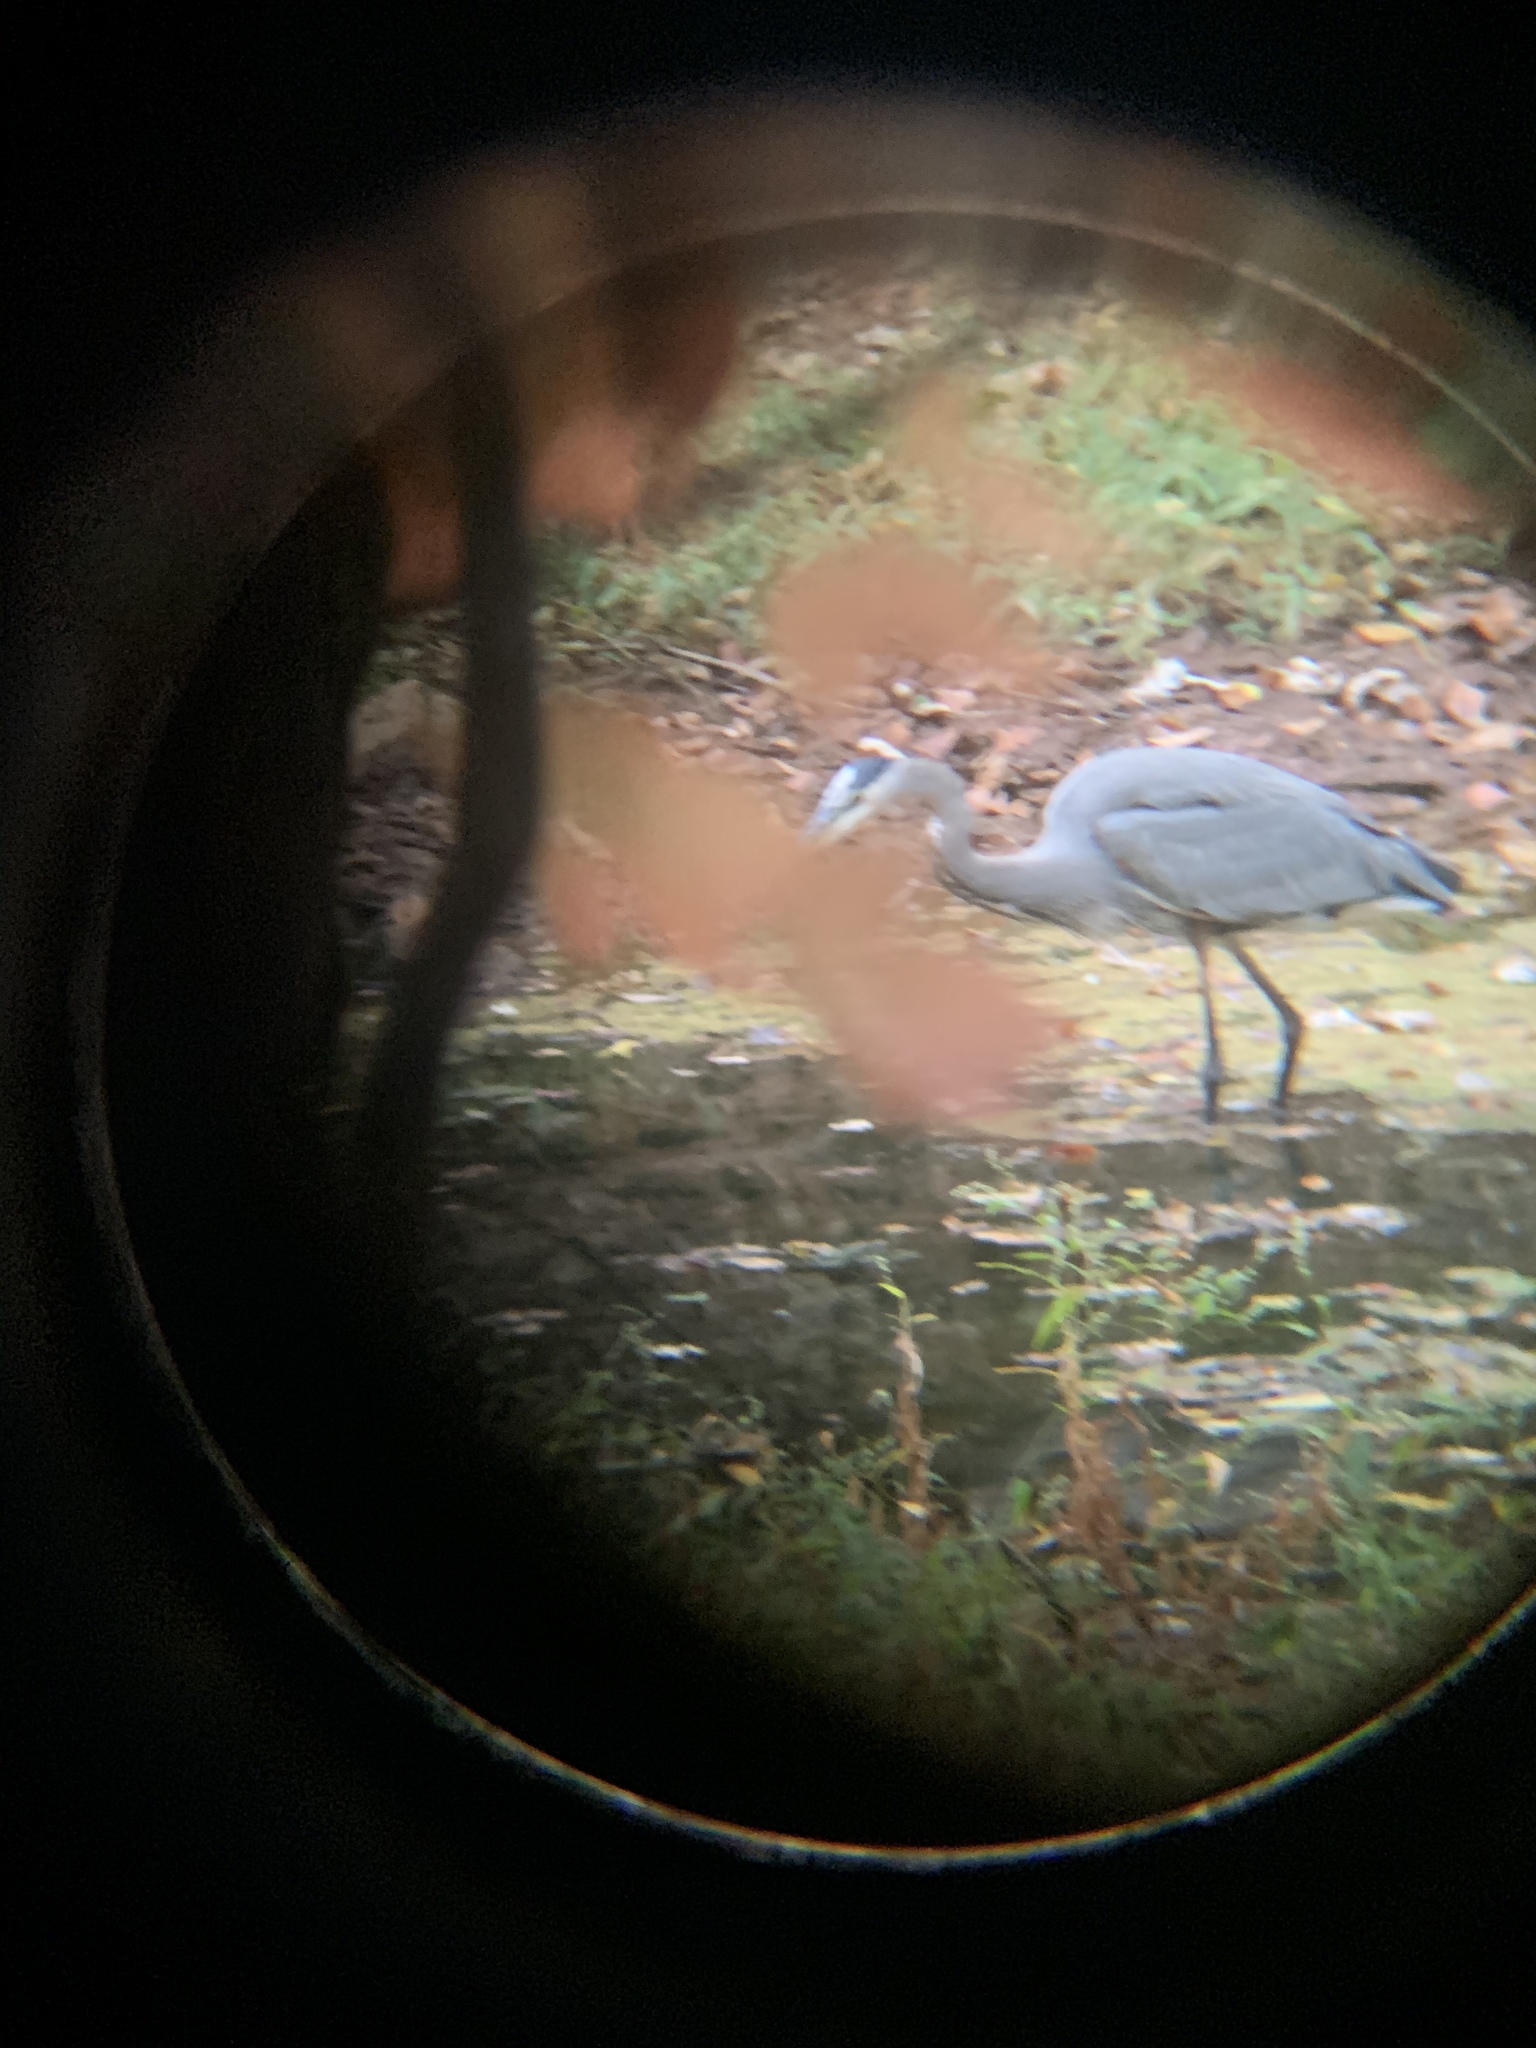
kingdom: Animalia
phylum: Chordata
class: Aves
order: Pelecaniformes
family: Ardeidae
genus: Ardea
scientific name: Ardea herodias
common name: Great blue heron
